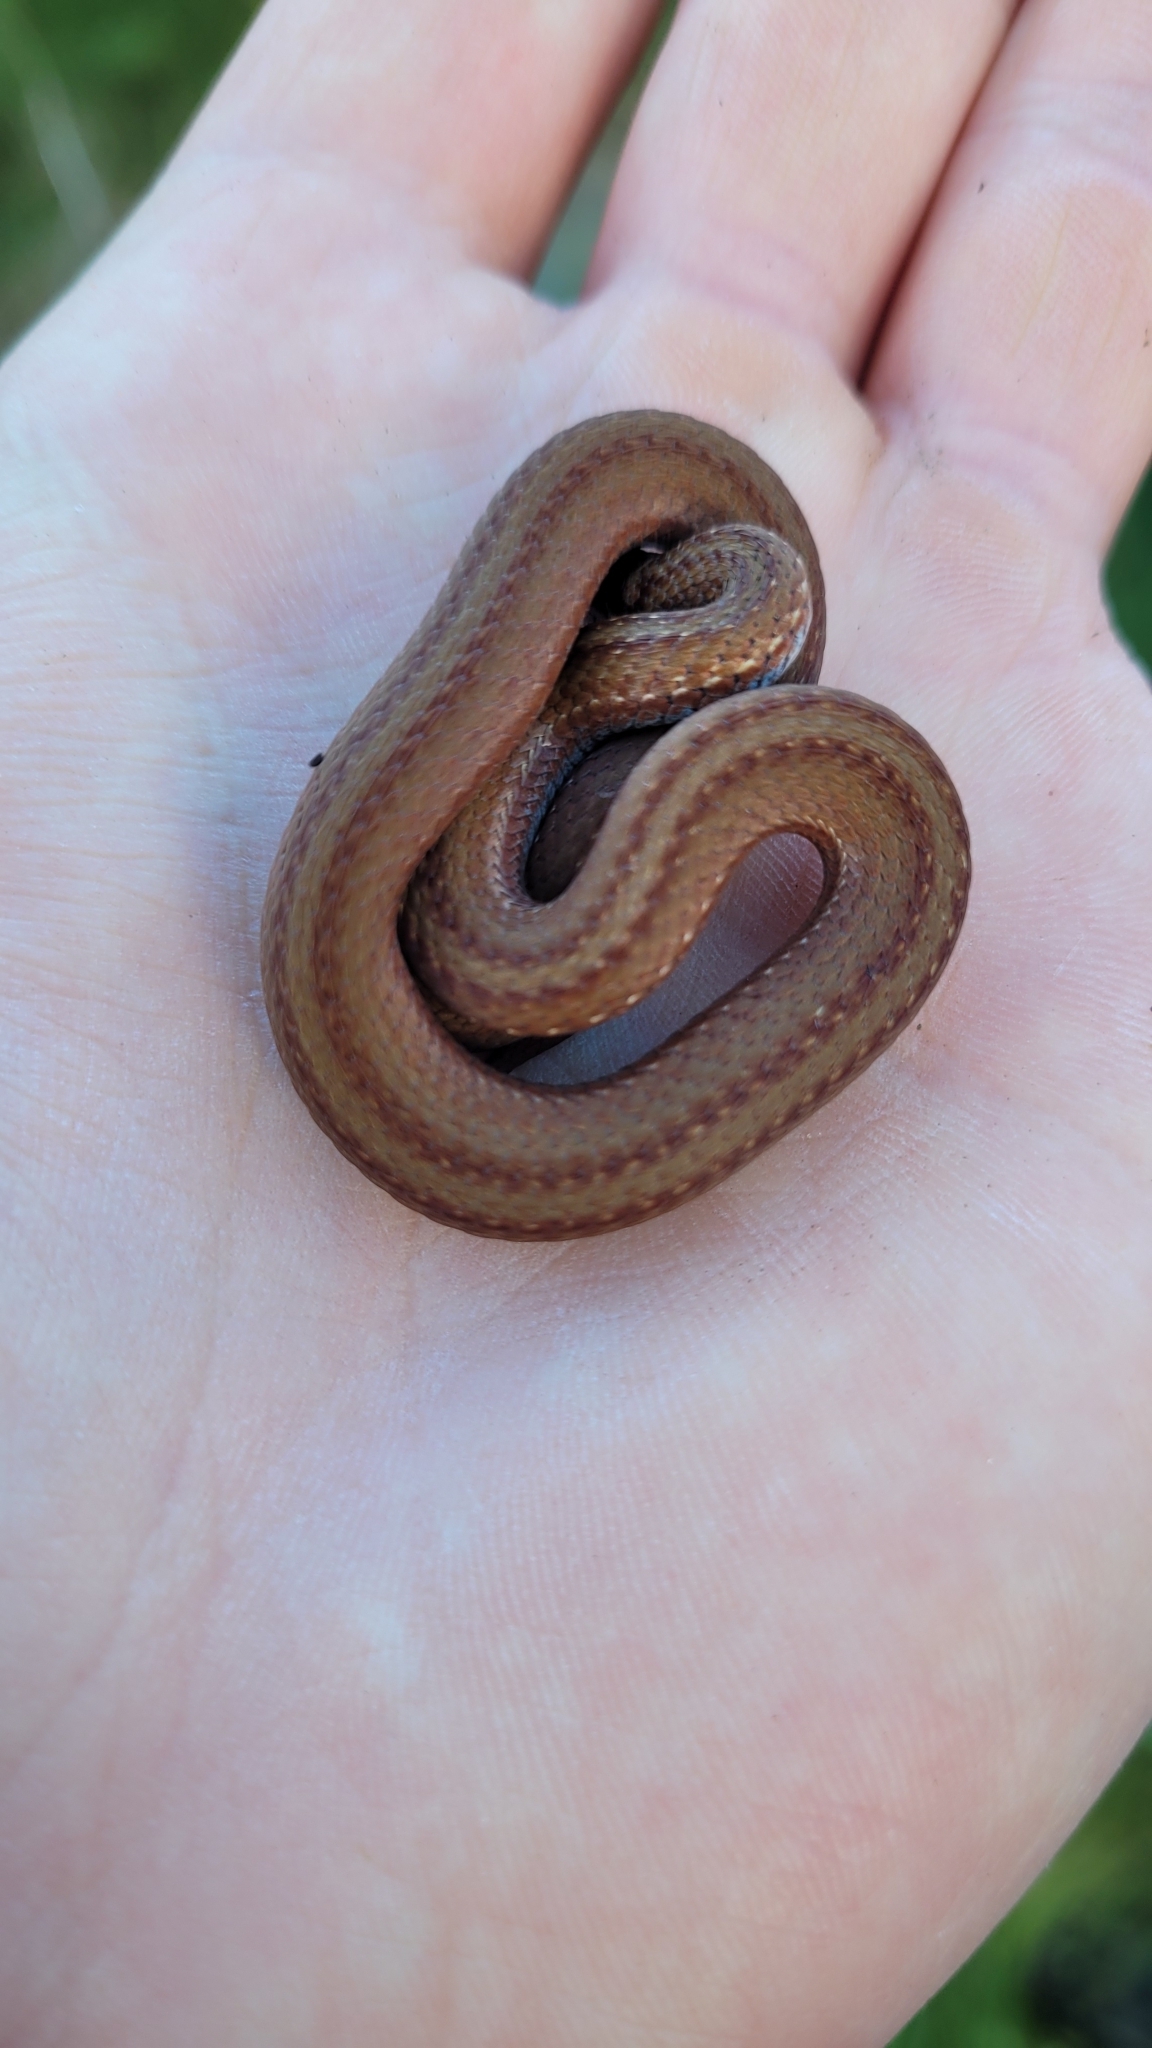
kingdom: Animalia
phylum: Chordata
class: Squamata
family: Colubridae
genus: Storeria
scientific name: Storeria occipitomaculata
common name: Redbelly snake
